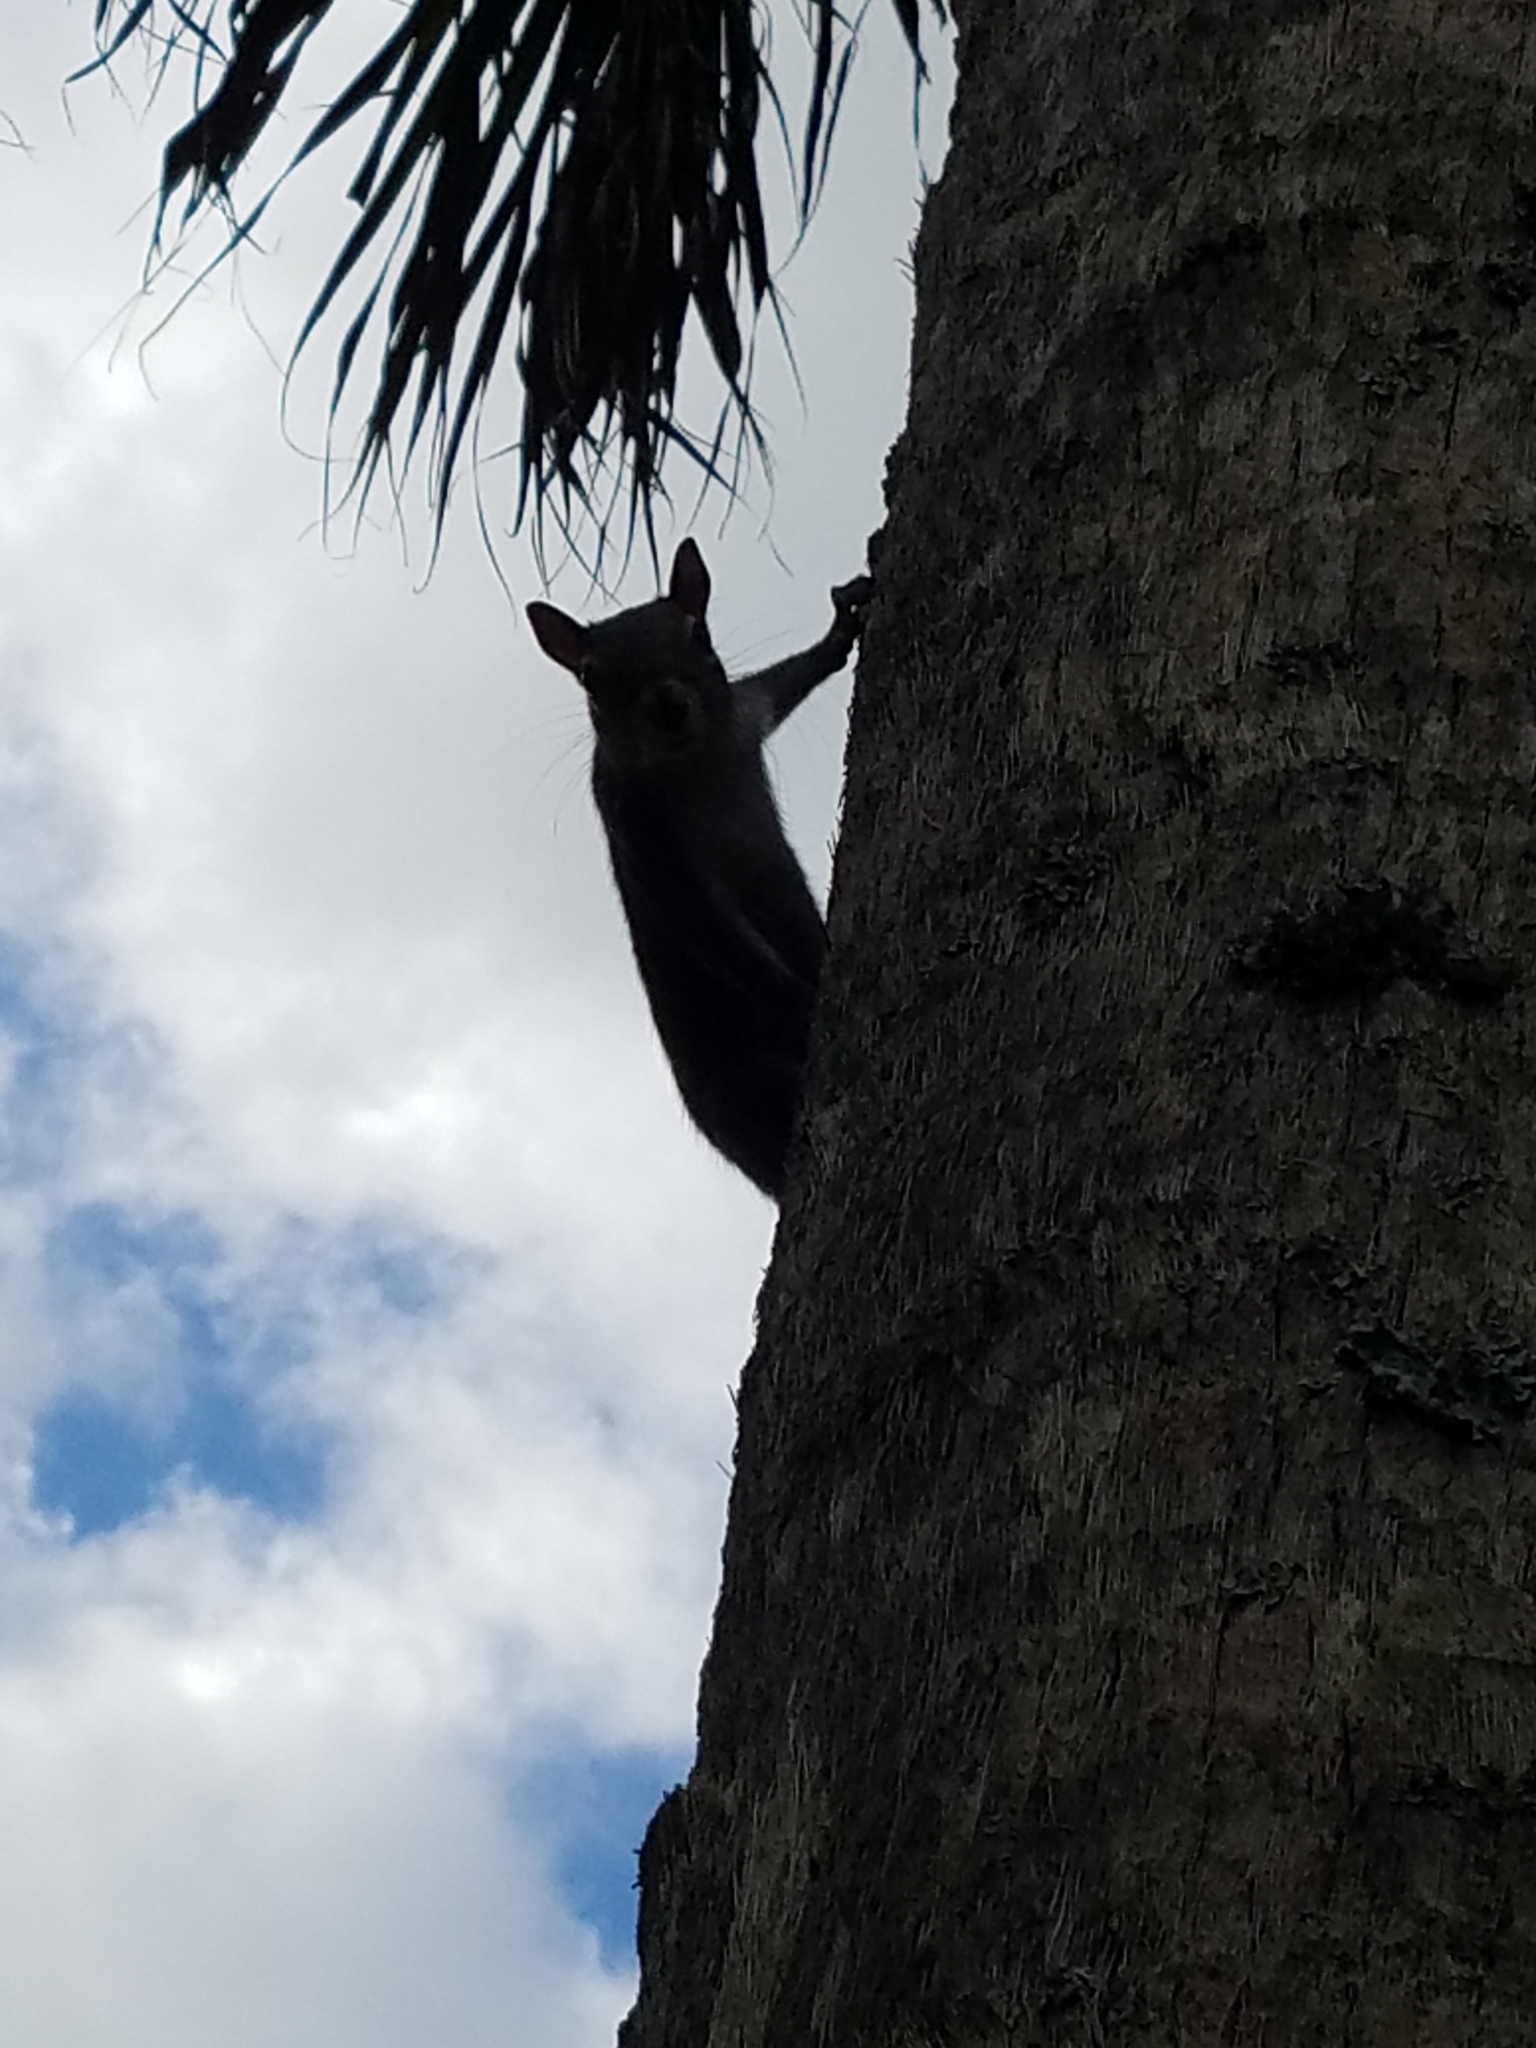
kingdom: Animalia
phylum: Chordata
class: Mammalia
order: Rodentia
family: Sciuridae
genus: Sciurus
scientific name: Sciurus carolinensis
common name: Eastern gray squirrel
